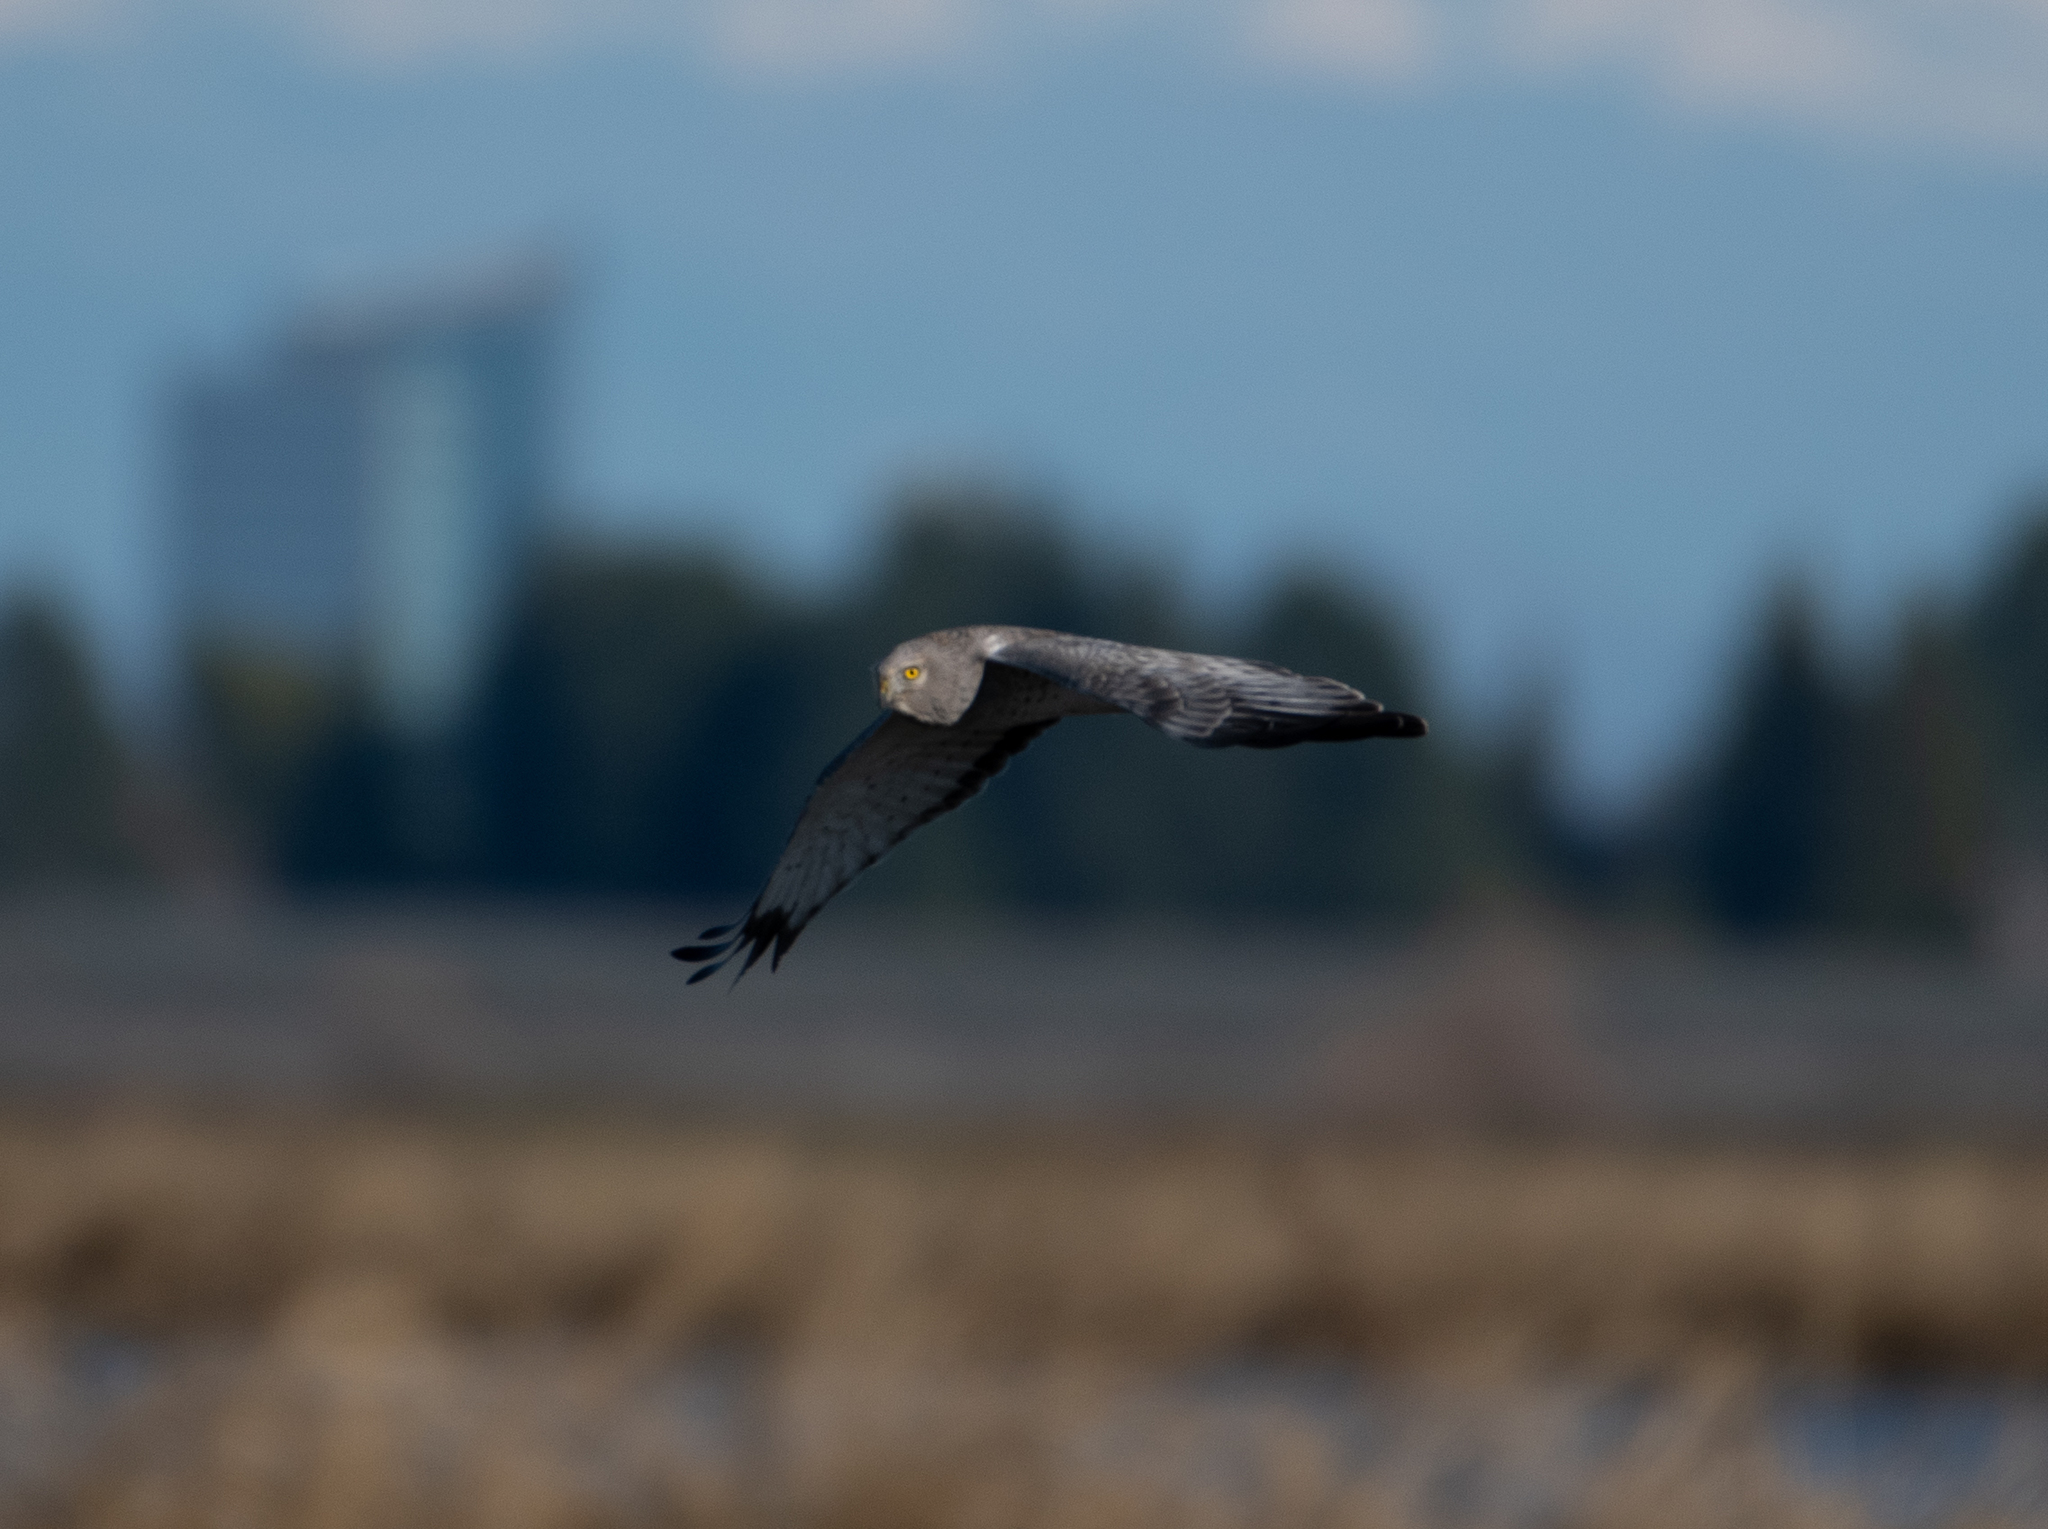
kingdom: Animalia
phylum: Chordata
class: Aves
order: Accipitriformes
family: Accipitridae
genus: Circus
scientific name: Circus cyaneus
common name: Hen harrier
